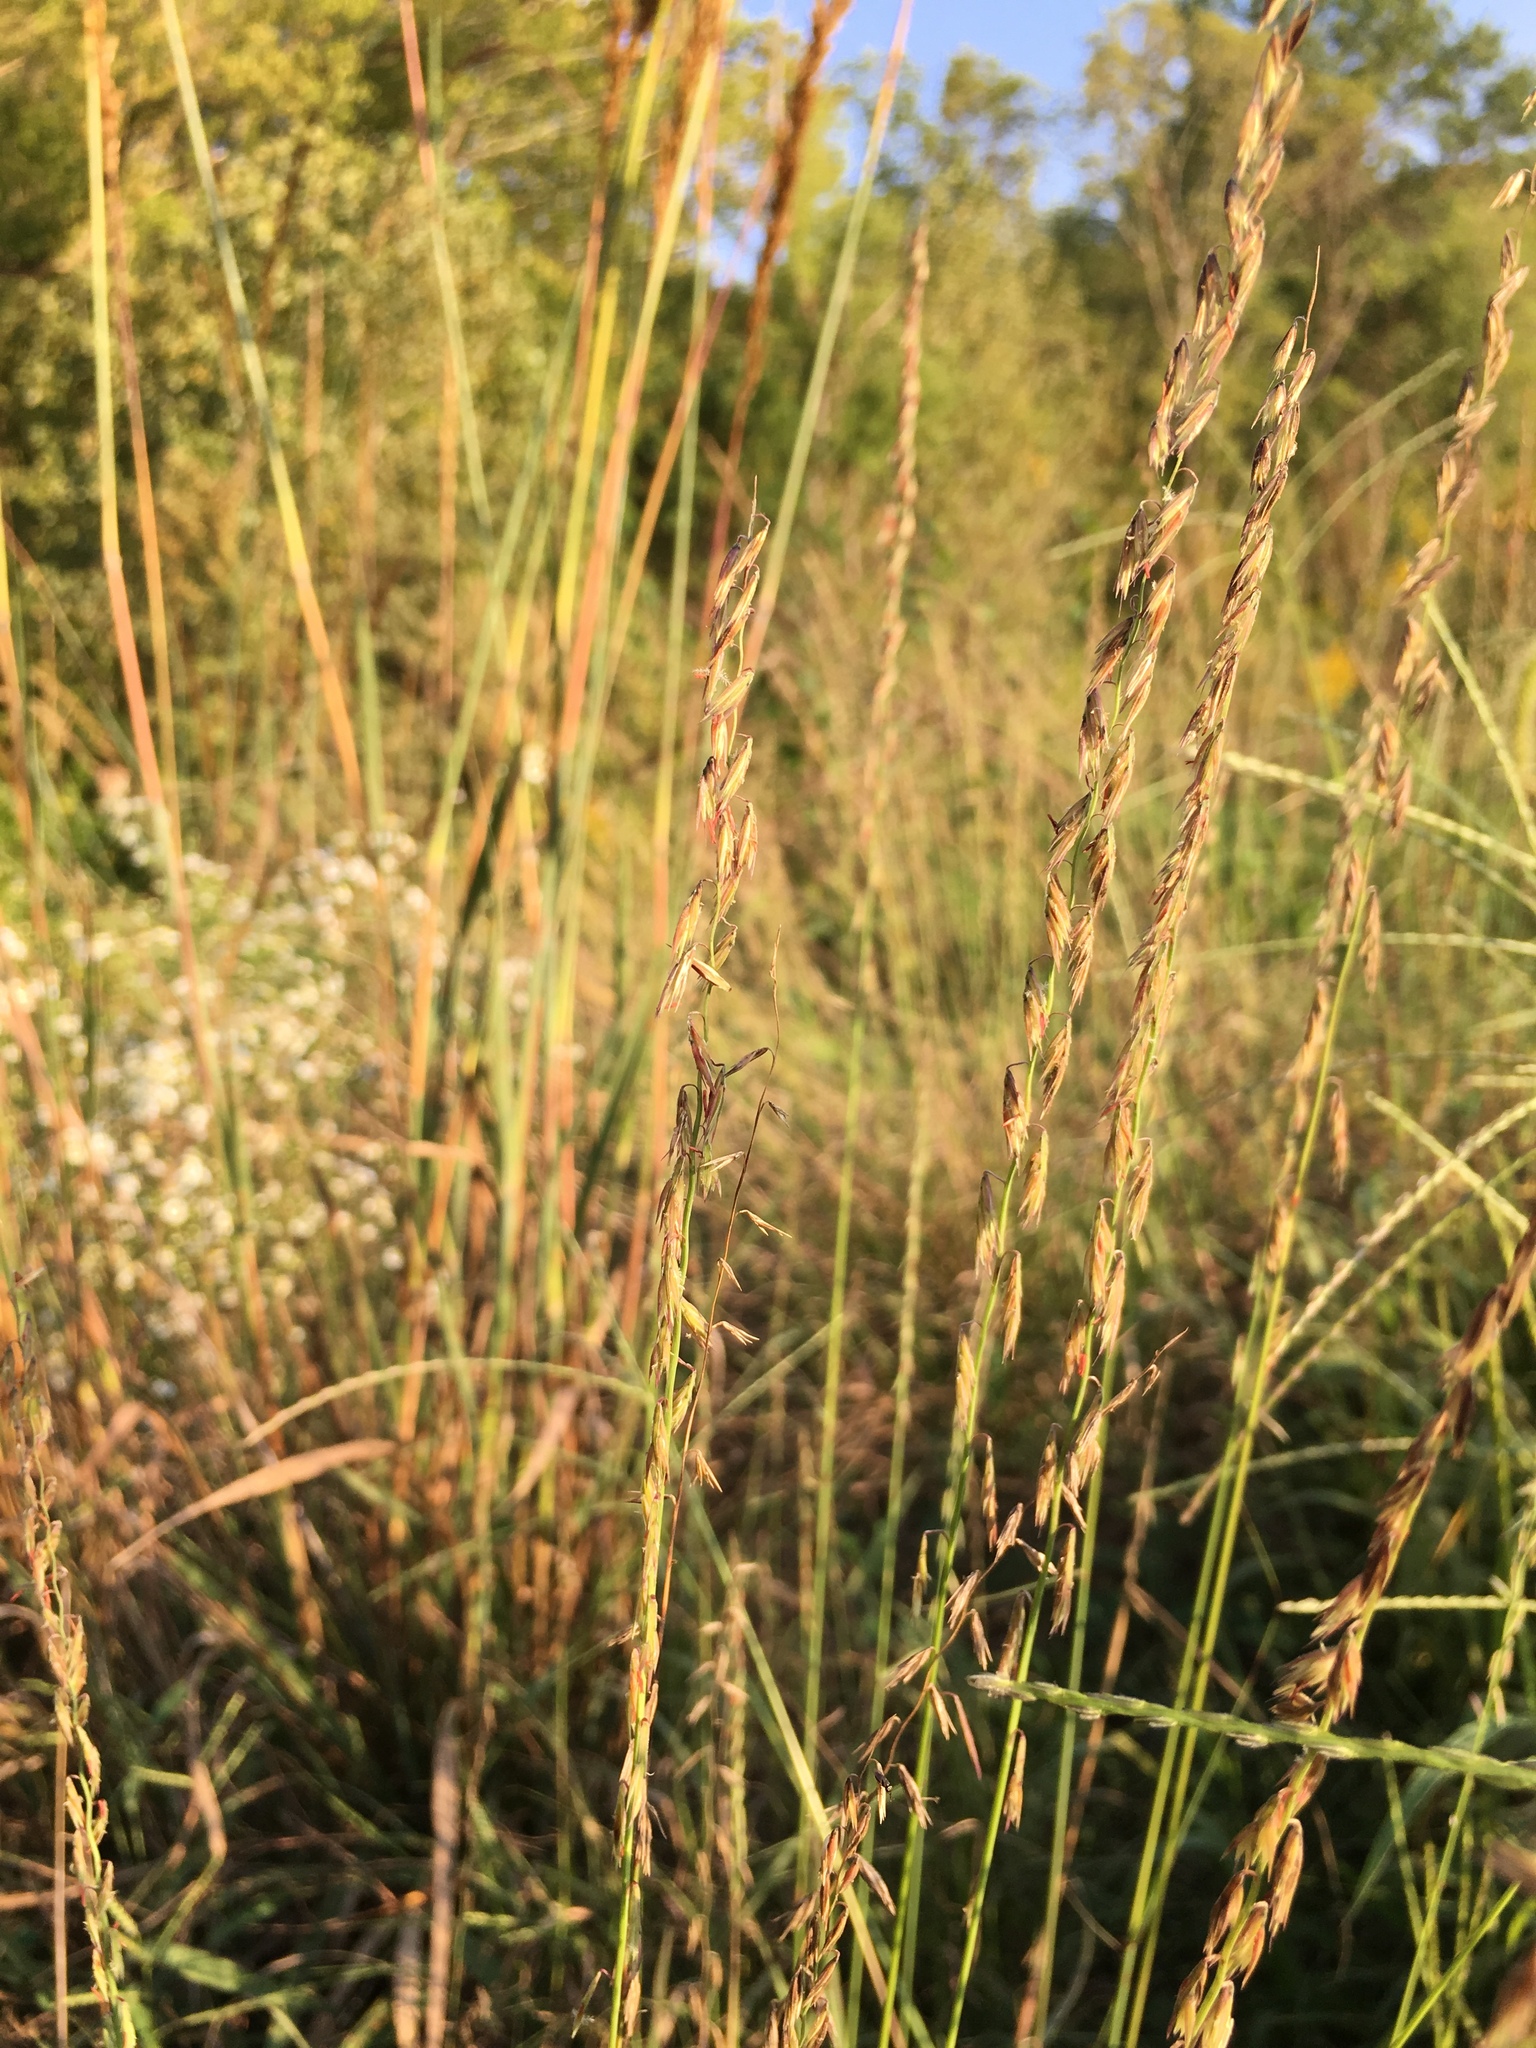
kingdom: Plantae
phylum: Tracheophyta
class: Liliopsida
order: Poales
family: Poaceae
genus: Bouteloua
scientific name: Bouteloua curtipendula
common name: Side-oats grama
